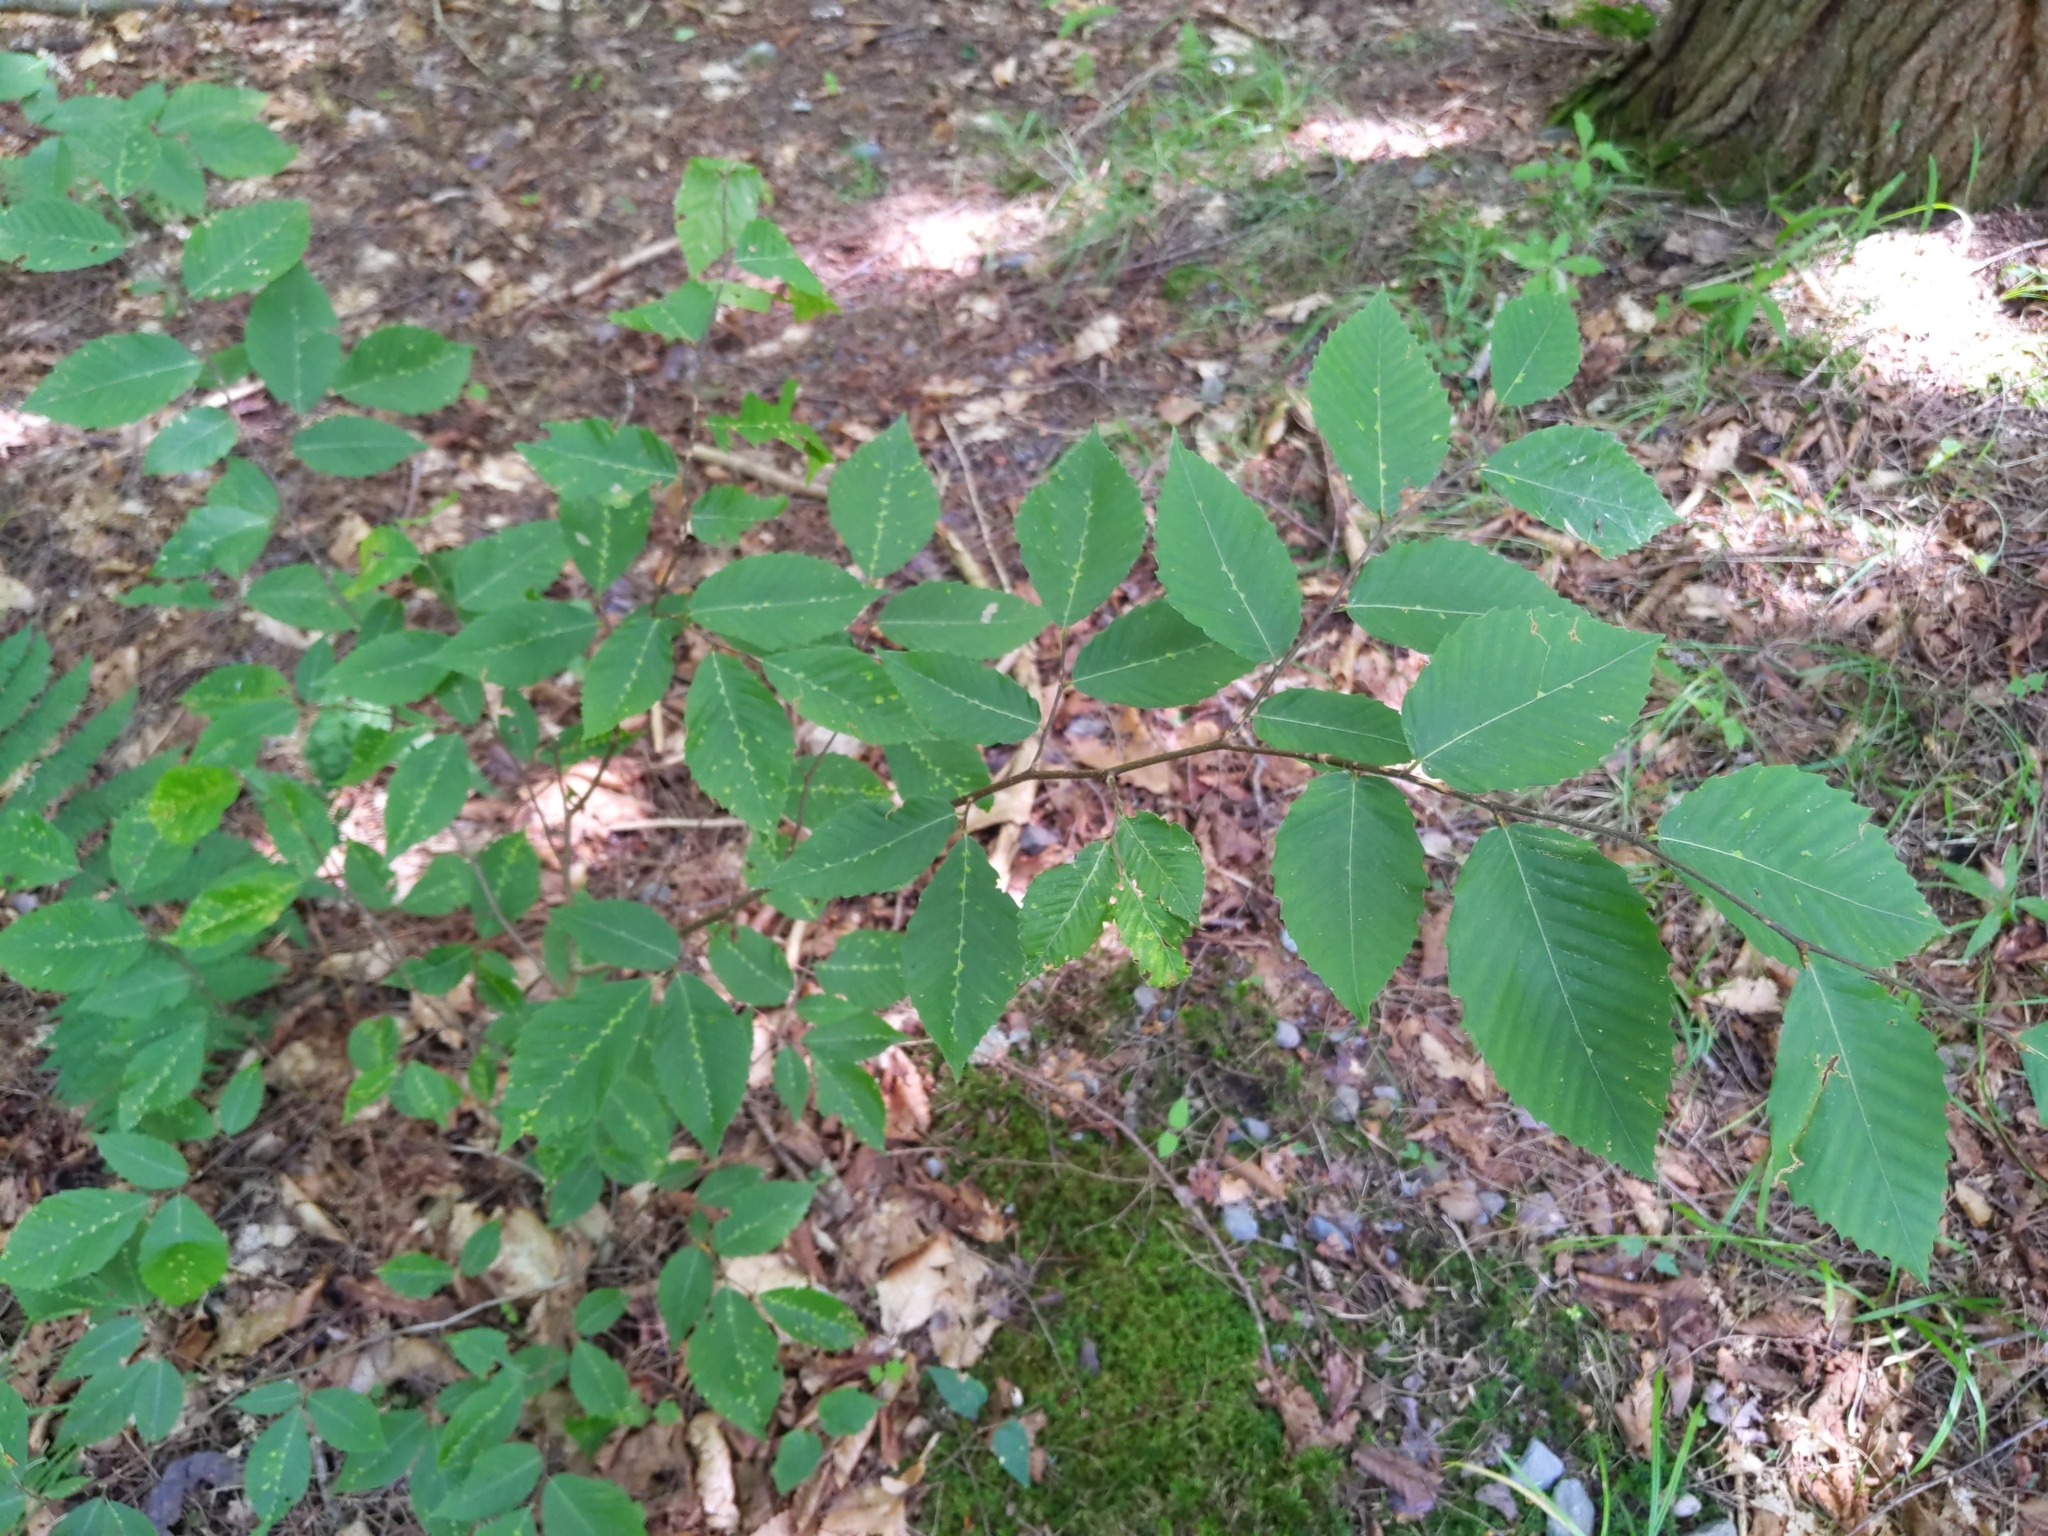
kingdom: Plantae
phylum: Tracheophyta
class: Magnoliopsida
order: Fagales
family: Fagaceae
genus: Fagus
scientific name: Fagus grandifolia
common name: American beech
